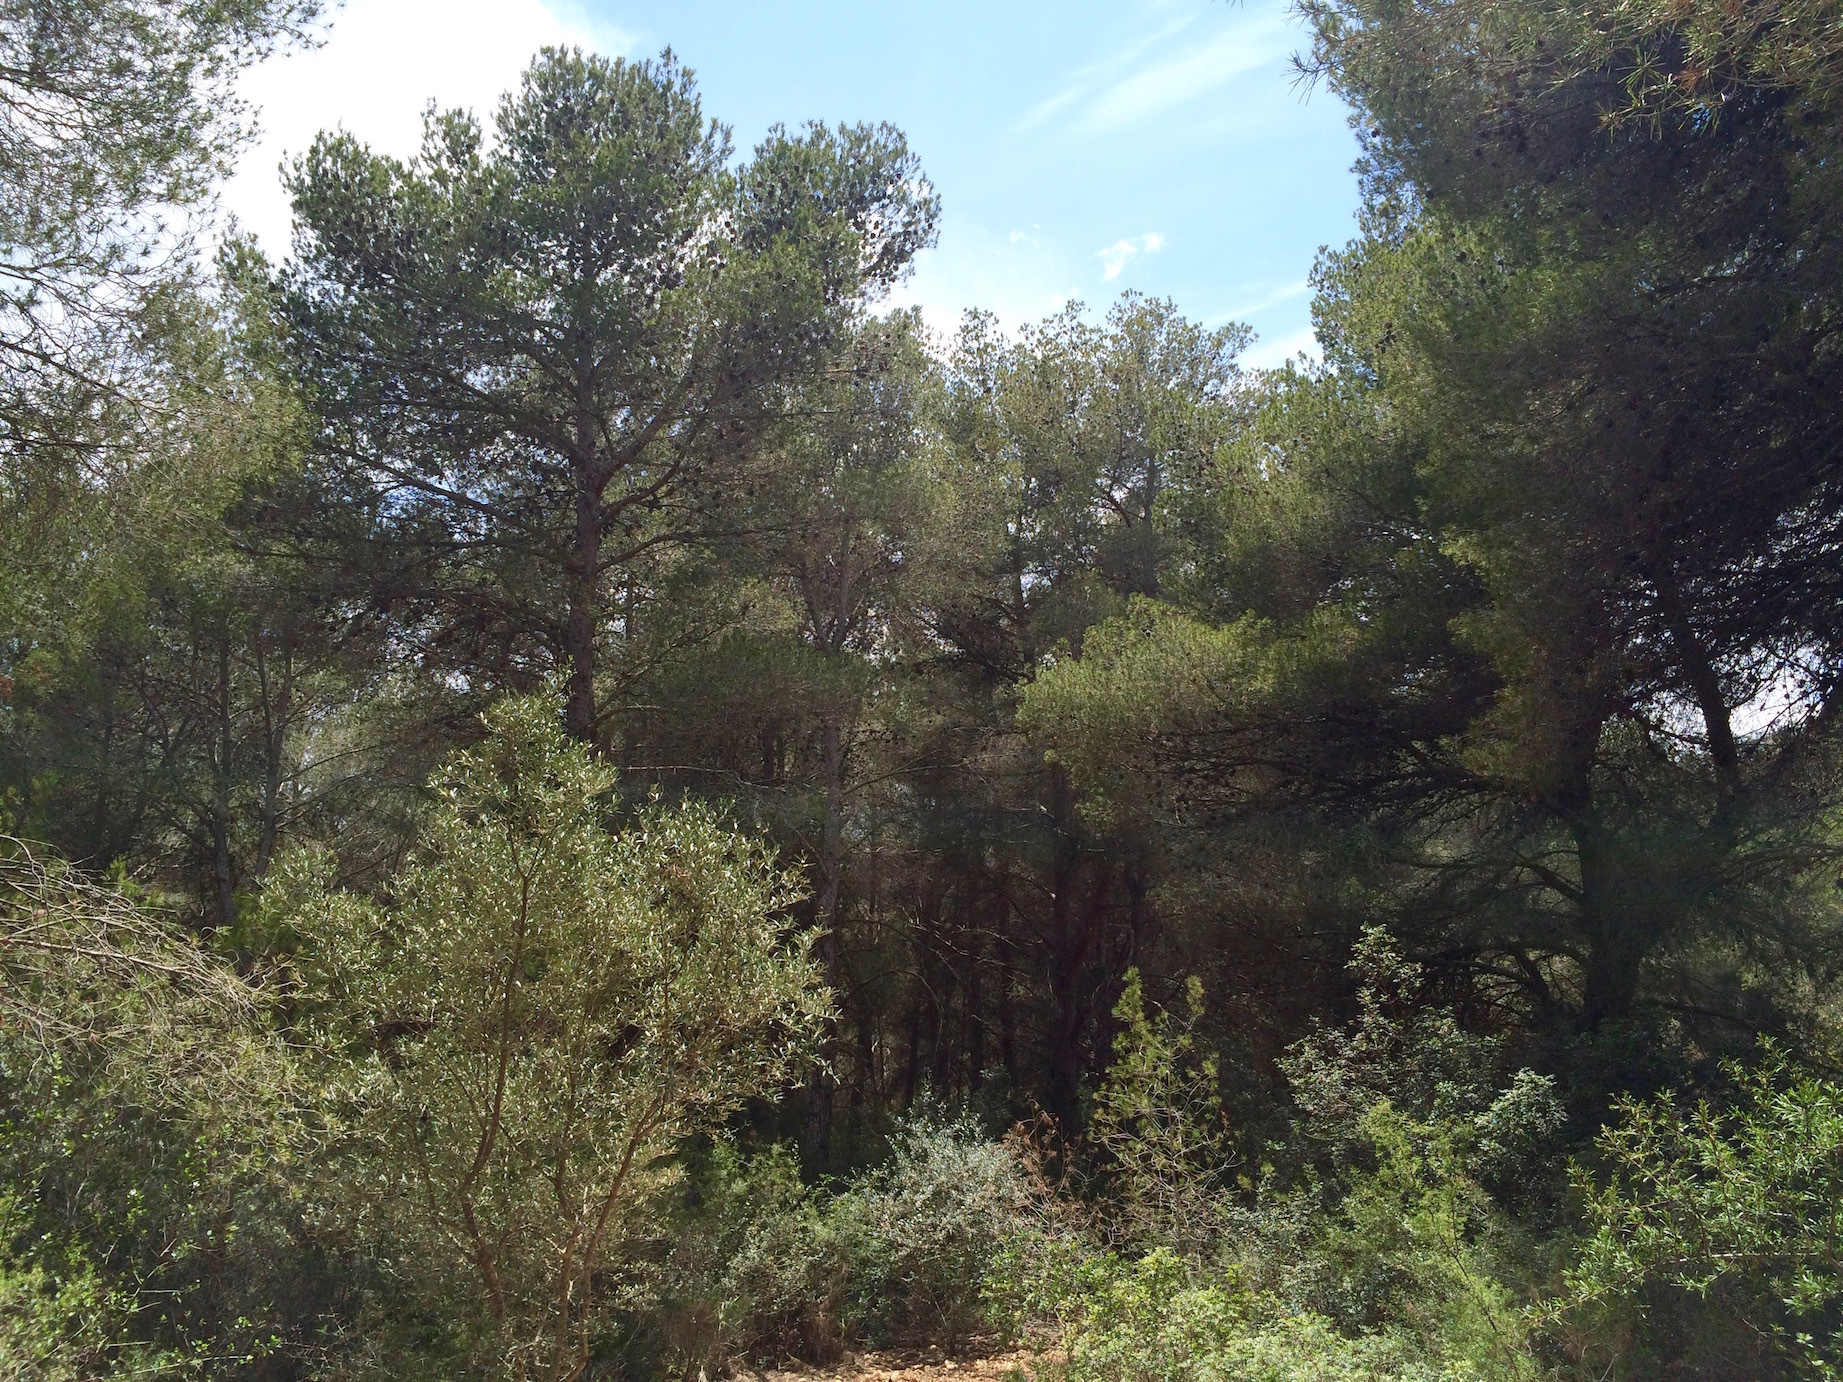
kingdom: Plantae
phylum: Tracheophyta
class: Pinopsida
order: Pinales
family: Pinaceae
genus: Pinus
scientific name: Pinus halepensis
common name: Aleppo pine
